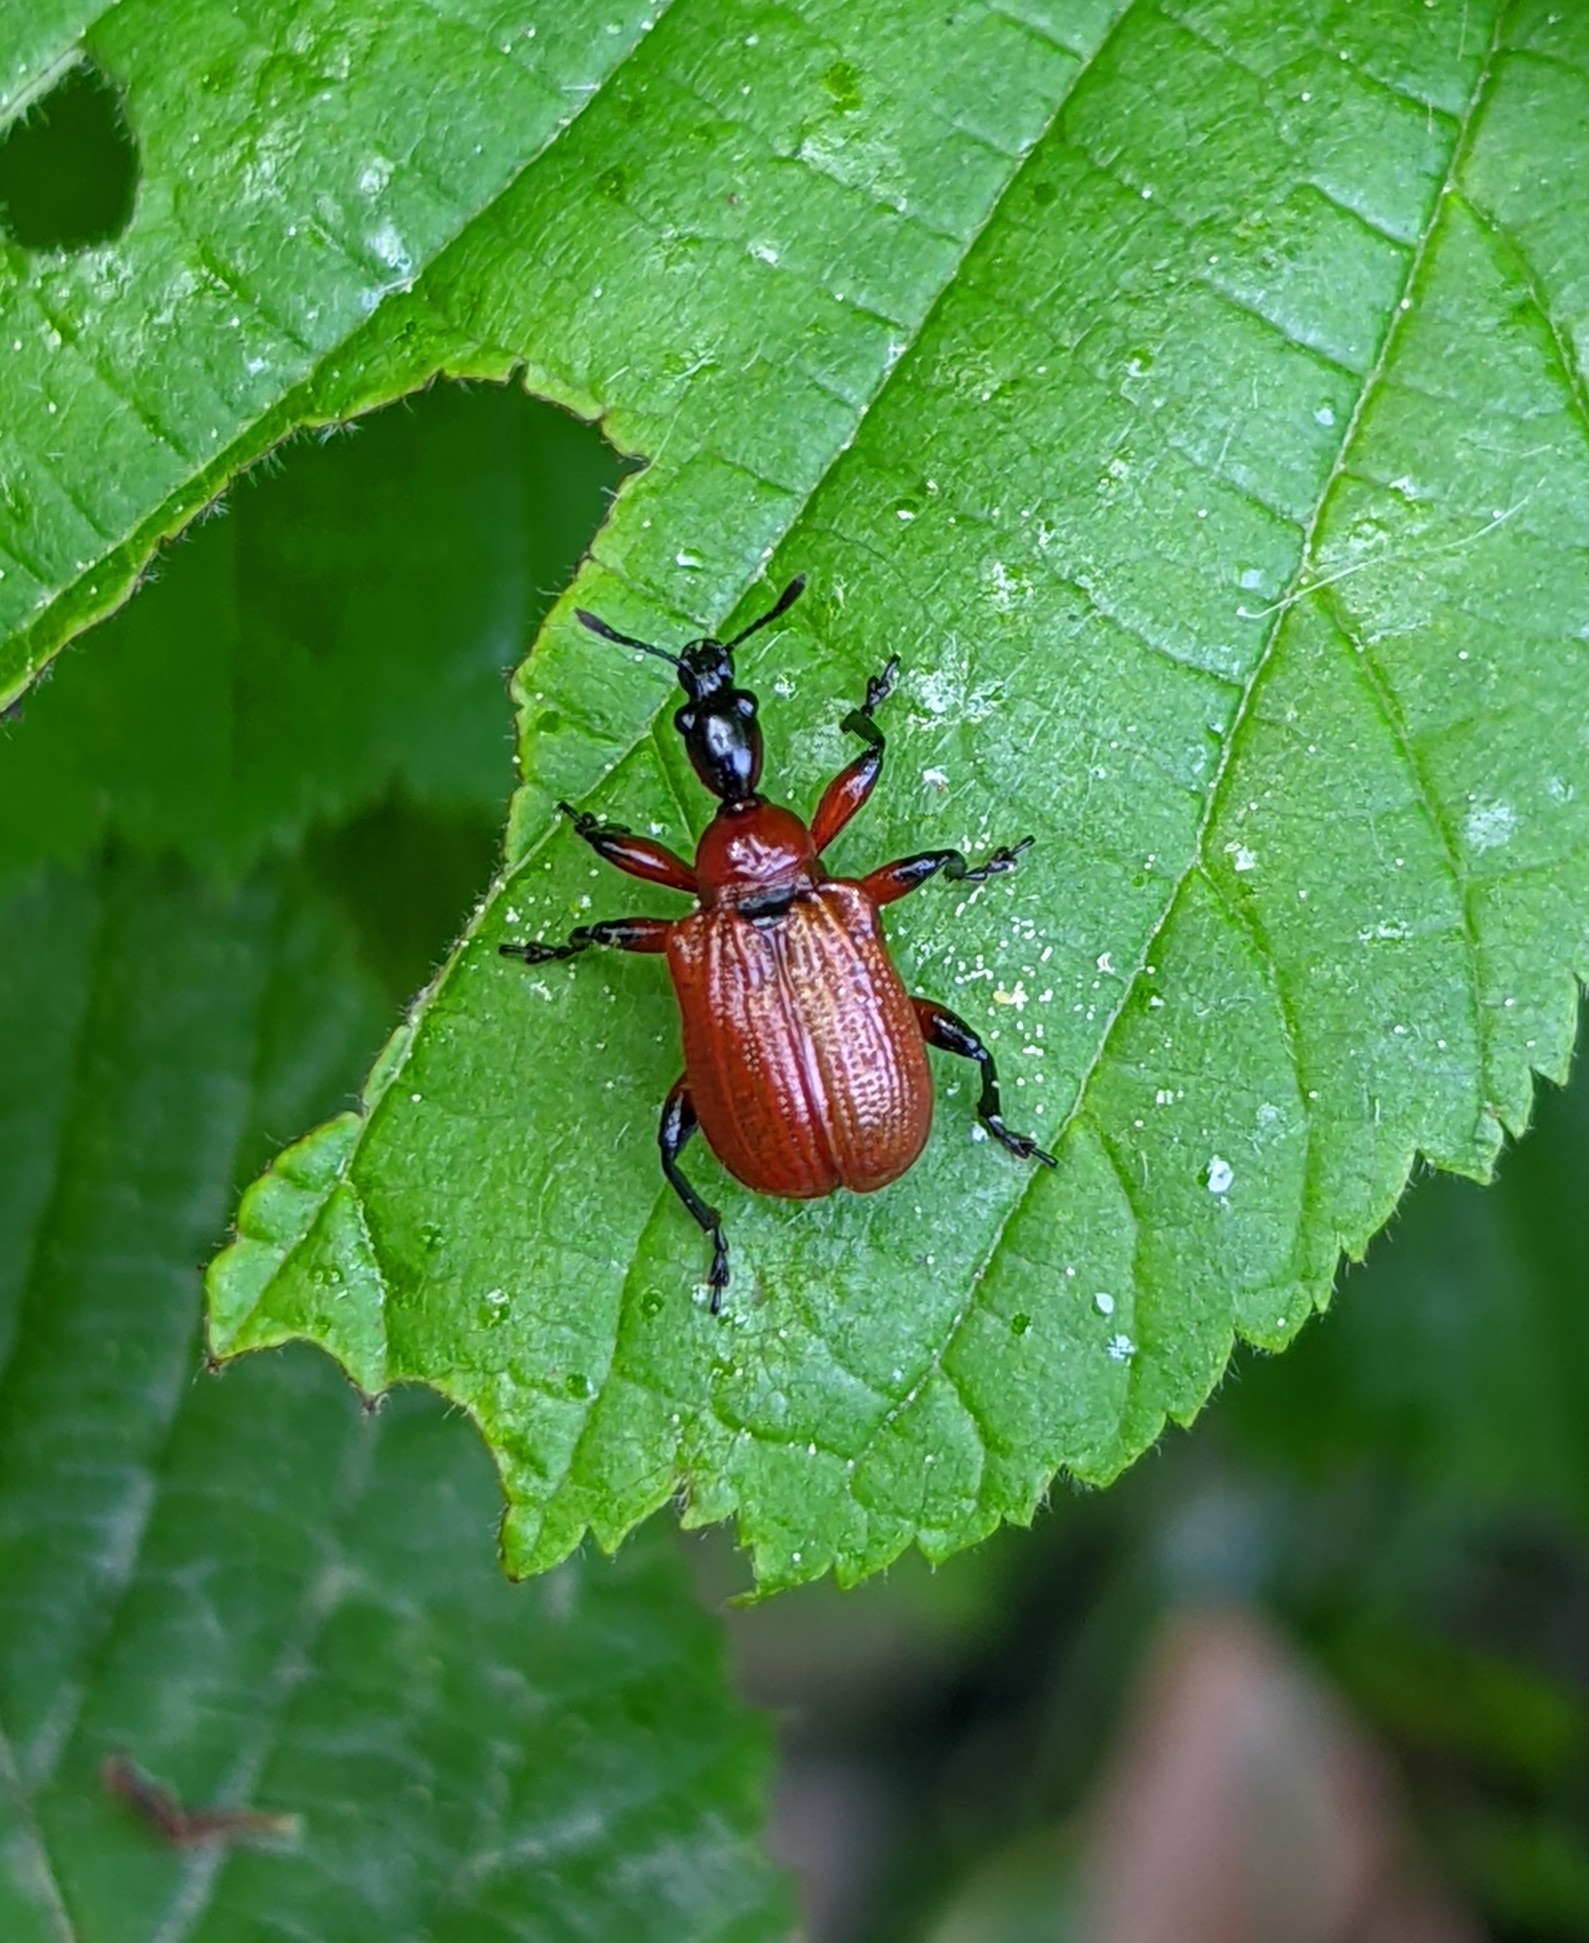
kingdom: Animalia
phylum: Arthropoda
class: Insecta
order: Coleoptera
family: Attelabidae
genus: Apoderus
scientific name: Apoderus coryli
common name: Hazel leaf roller
